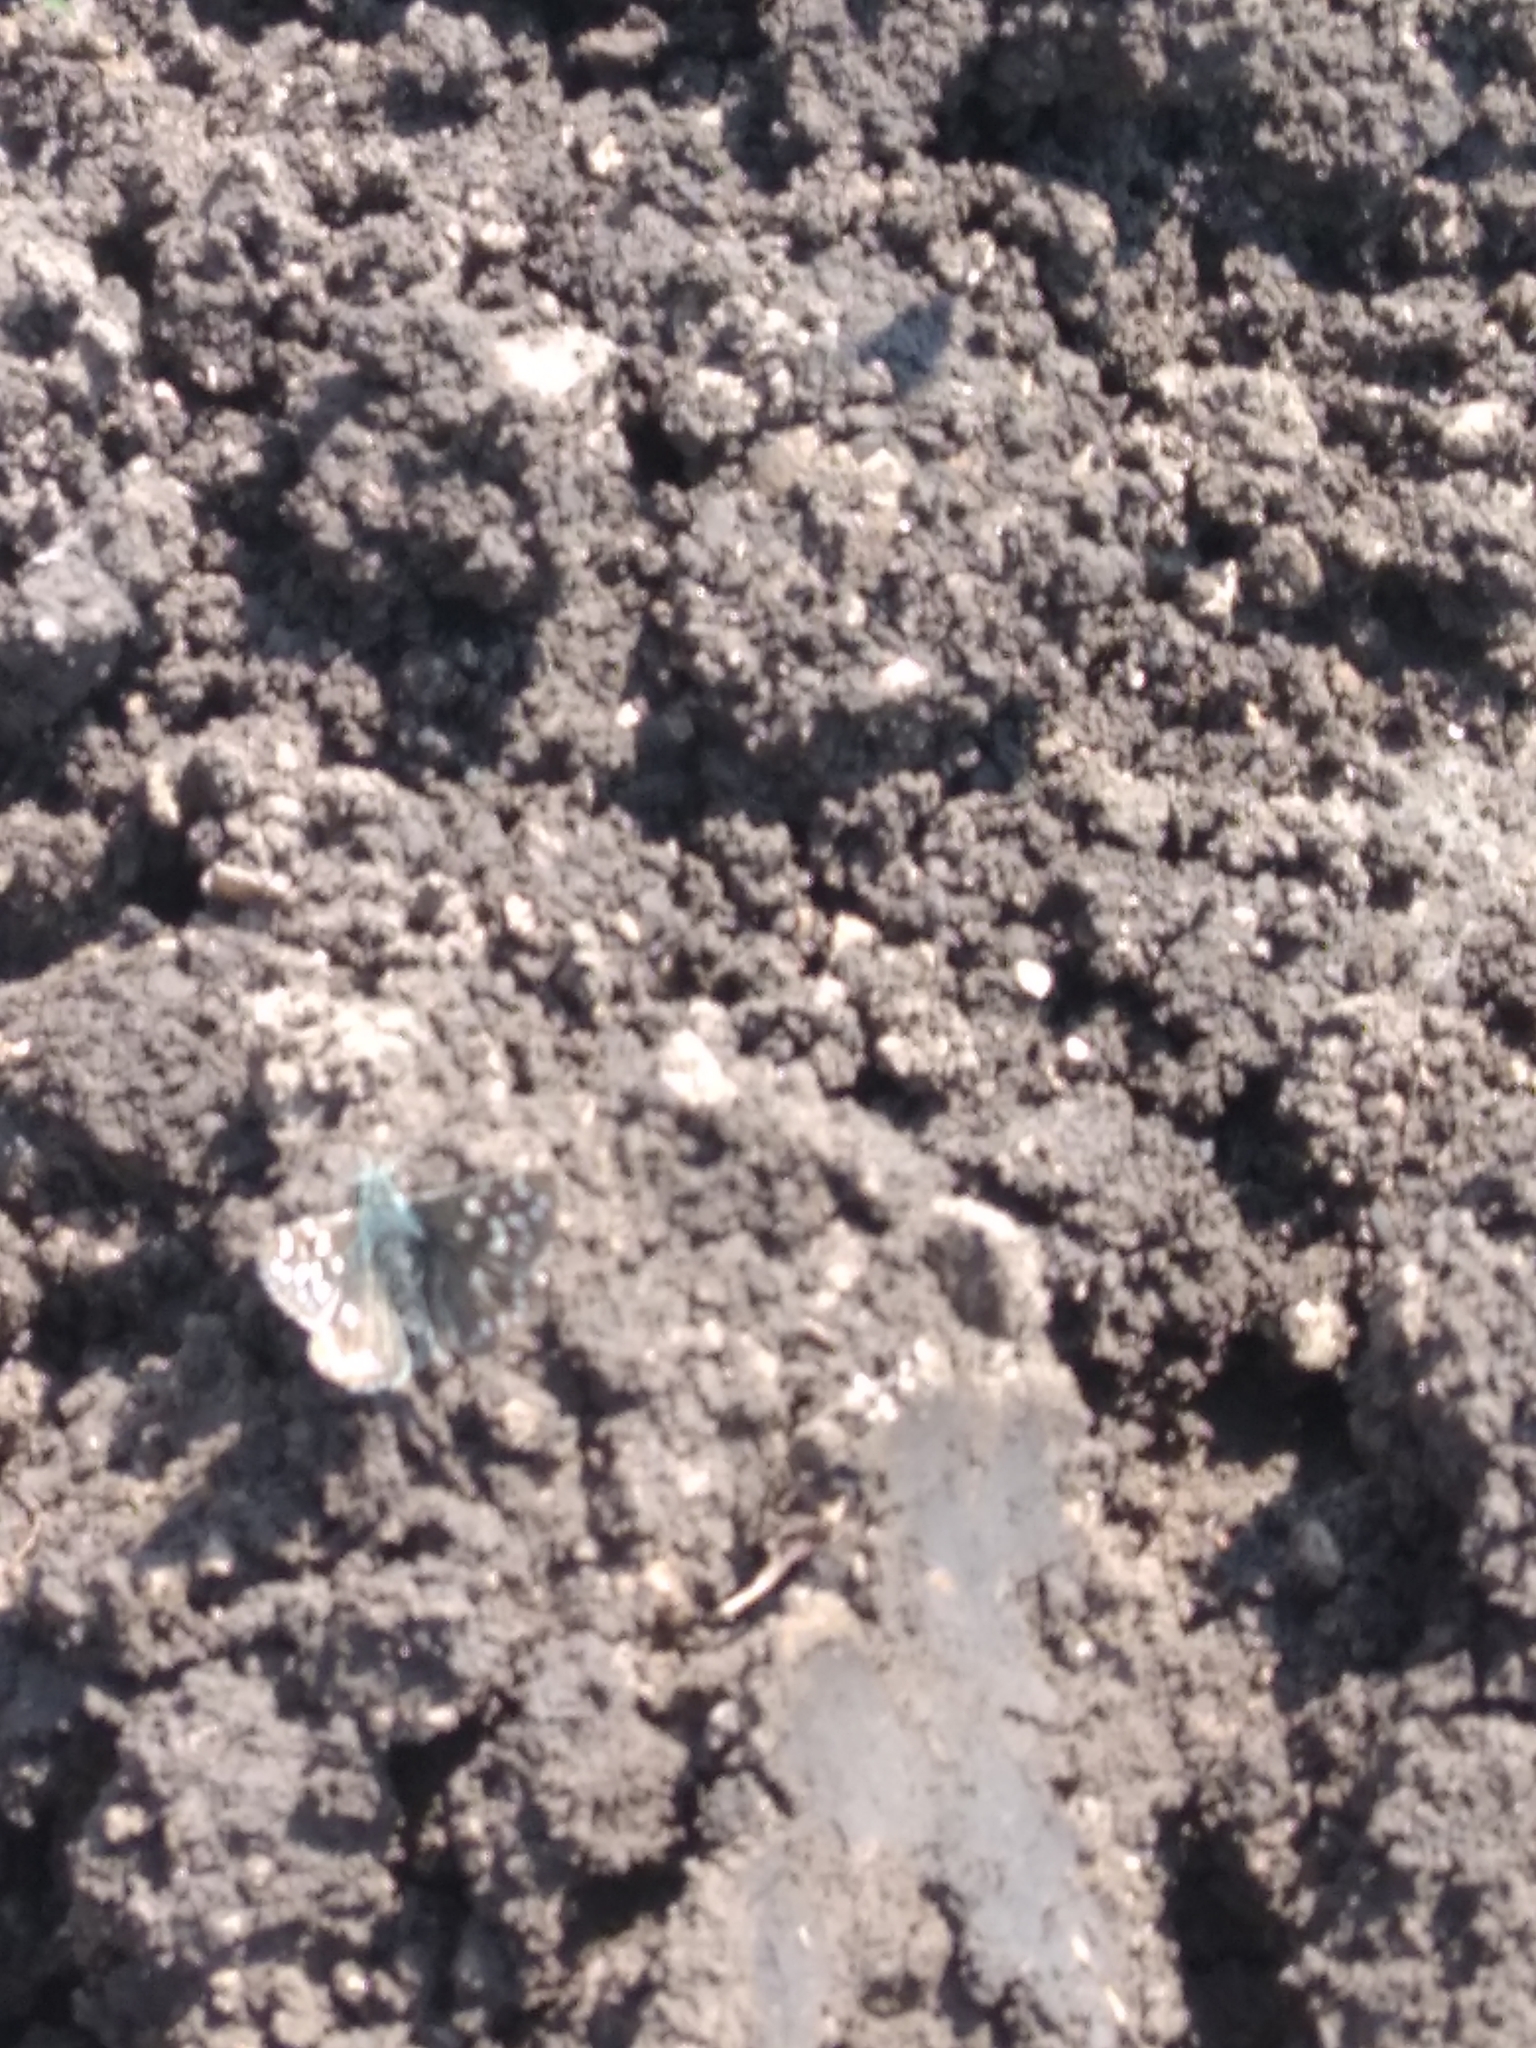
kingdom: Animalia
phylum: Arthropoda
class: Insecta
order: Lepidoptera
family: Hesperiidae
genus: Pyrgus
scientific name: Pyrgus malvae
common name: Grizzled skipper
